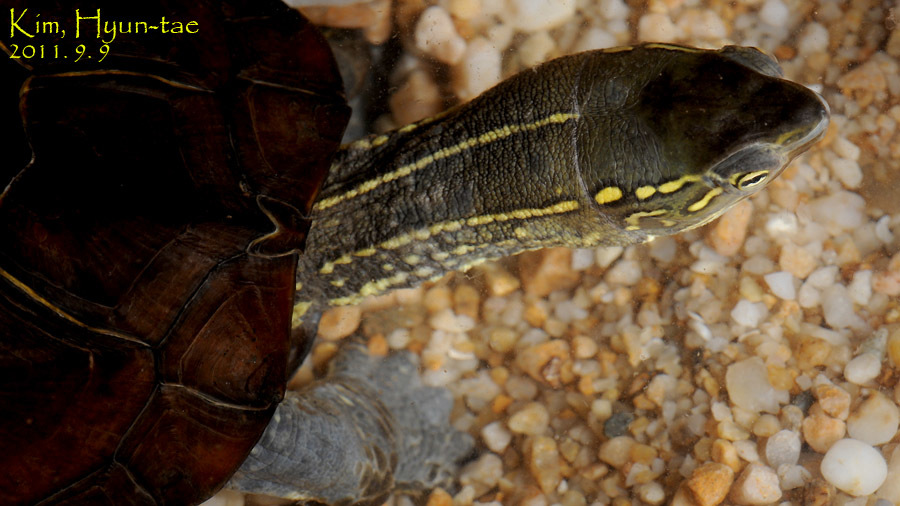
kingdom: Animalia
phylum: Chordata
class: Testudines
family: Geoemydidae
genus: Mauremys
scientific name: Mauremys reevesii
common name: Chinese pond turtle
